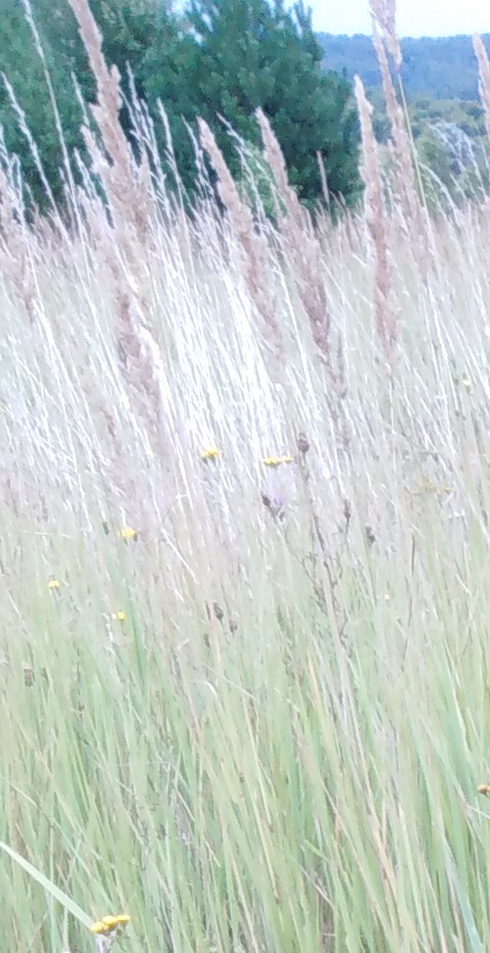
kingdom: Plantae
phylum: Tracheophyta
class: Liliopsida
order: Poales
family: Poaceae
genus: Calamagrostis
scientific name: Calamagrostis epigejos
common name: Wood small-reed
